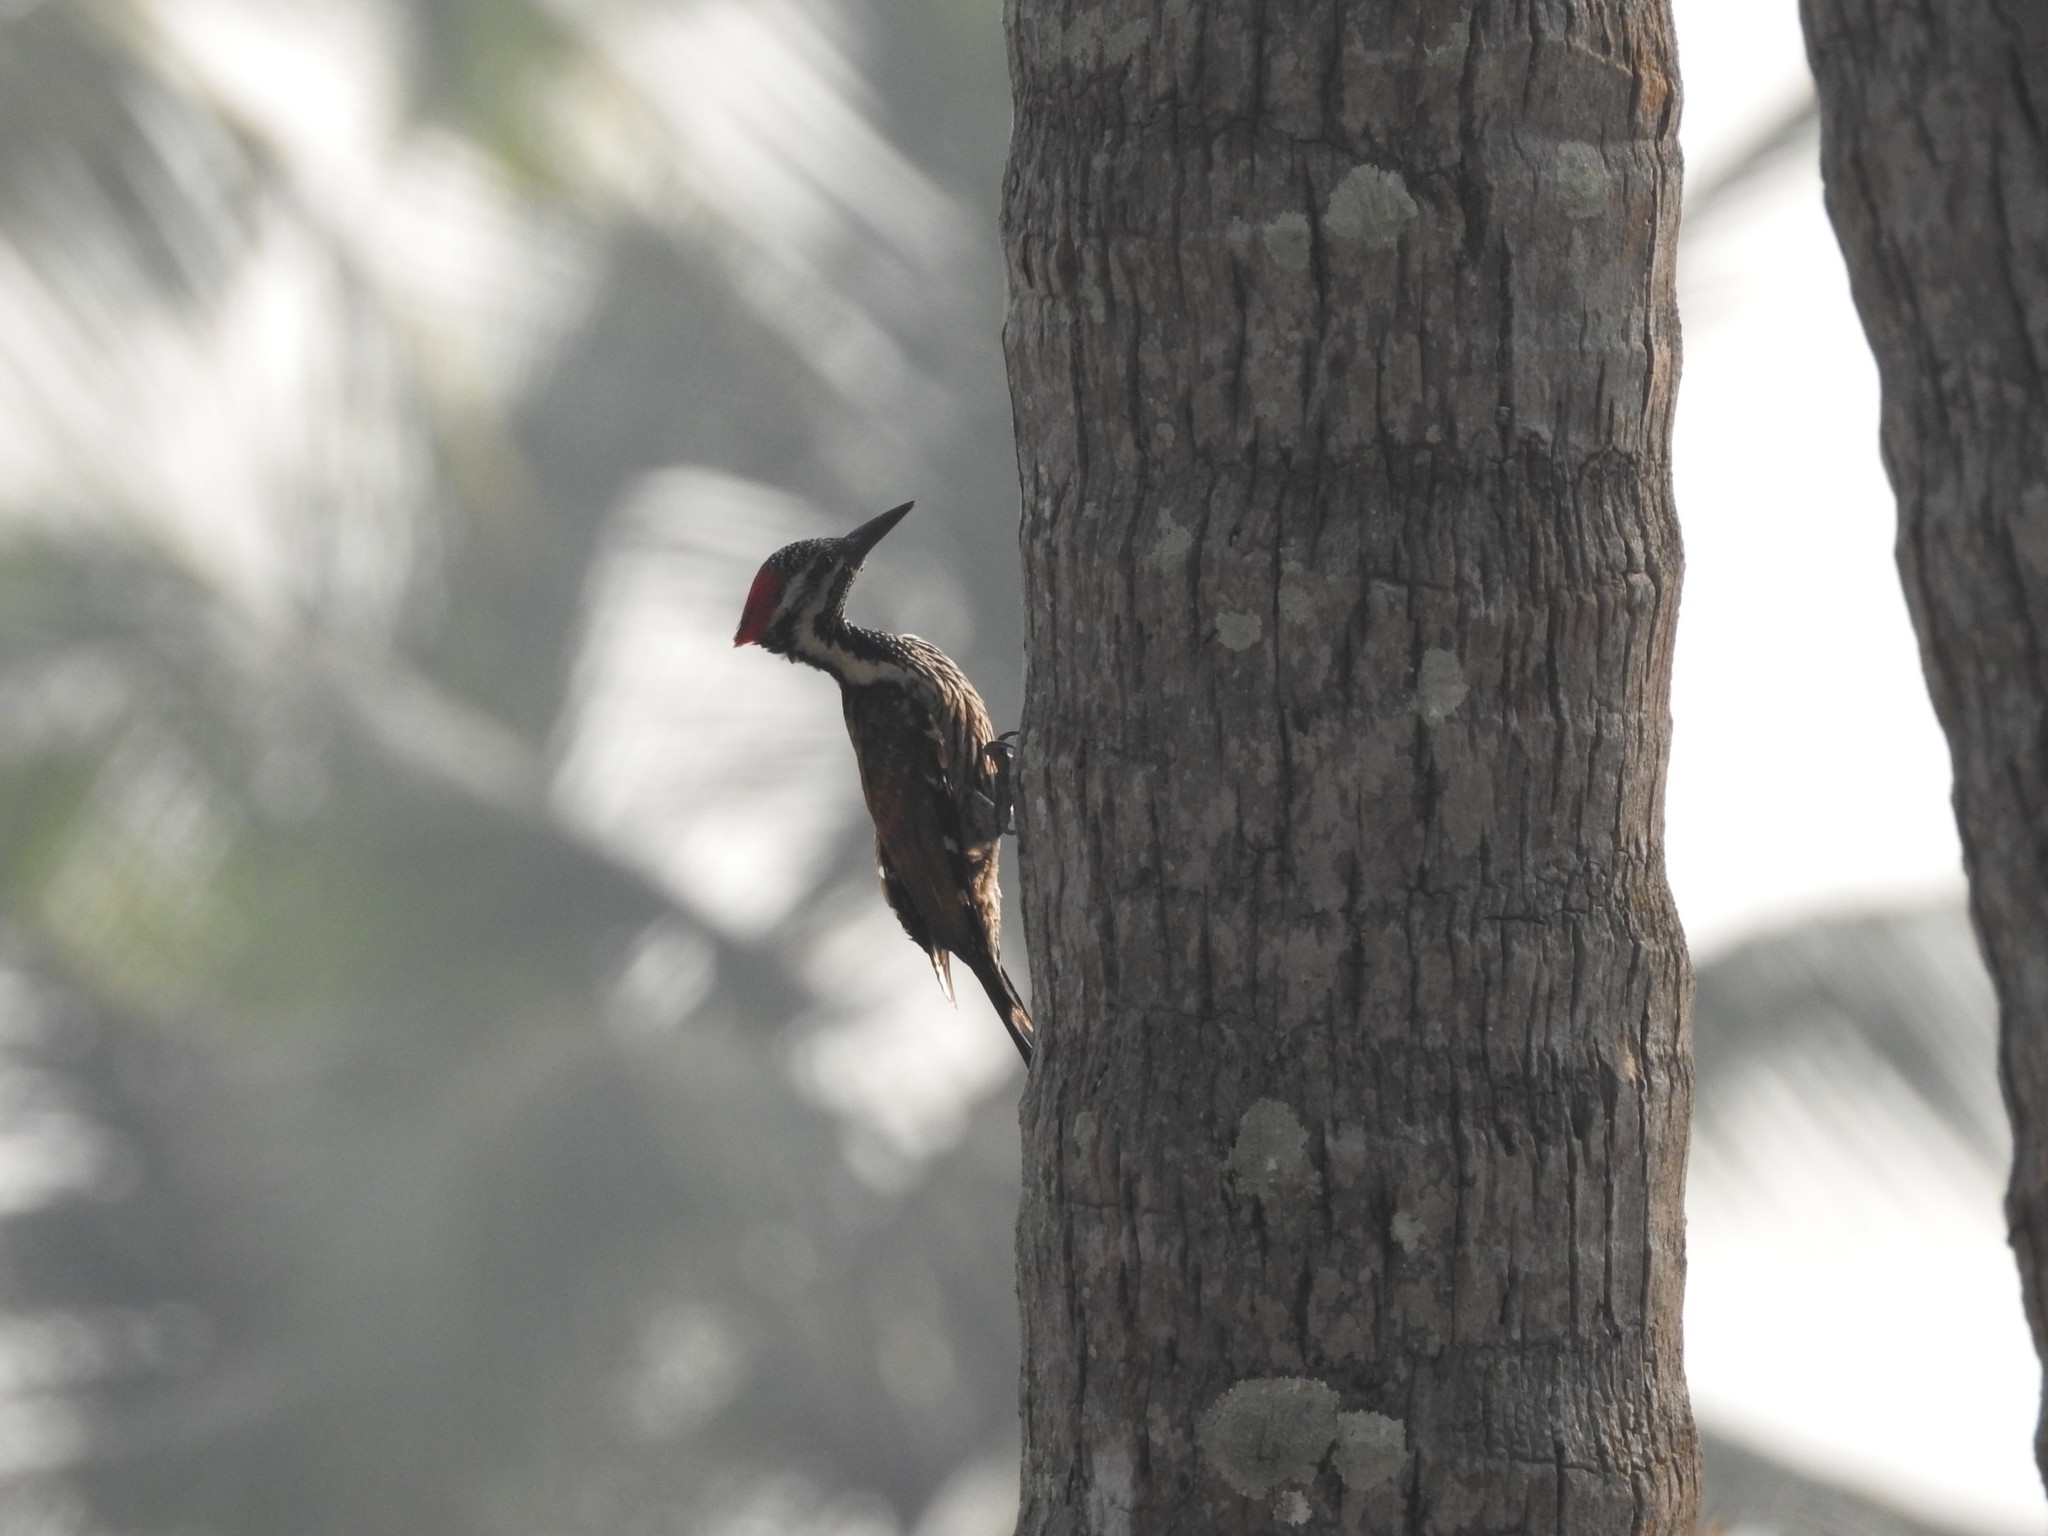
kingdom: Animalia
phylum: Chordata
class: Aves
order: Piciformes
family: Picidae
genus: Dinopium
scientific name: Dinopium benghalense
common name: Black-rumped flameback
